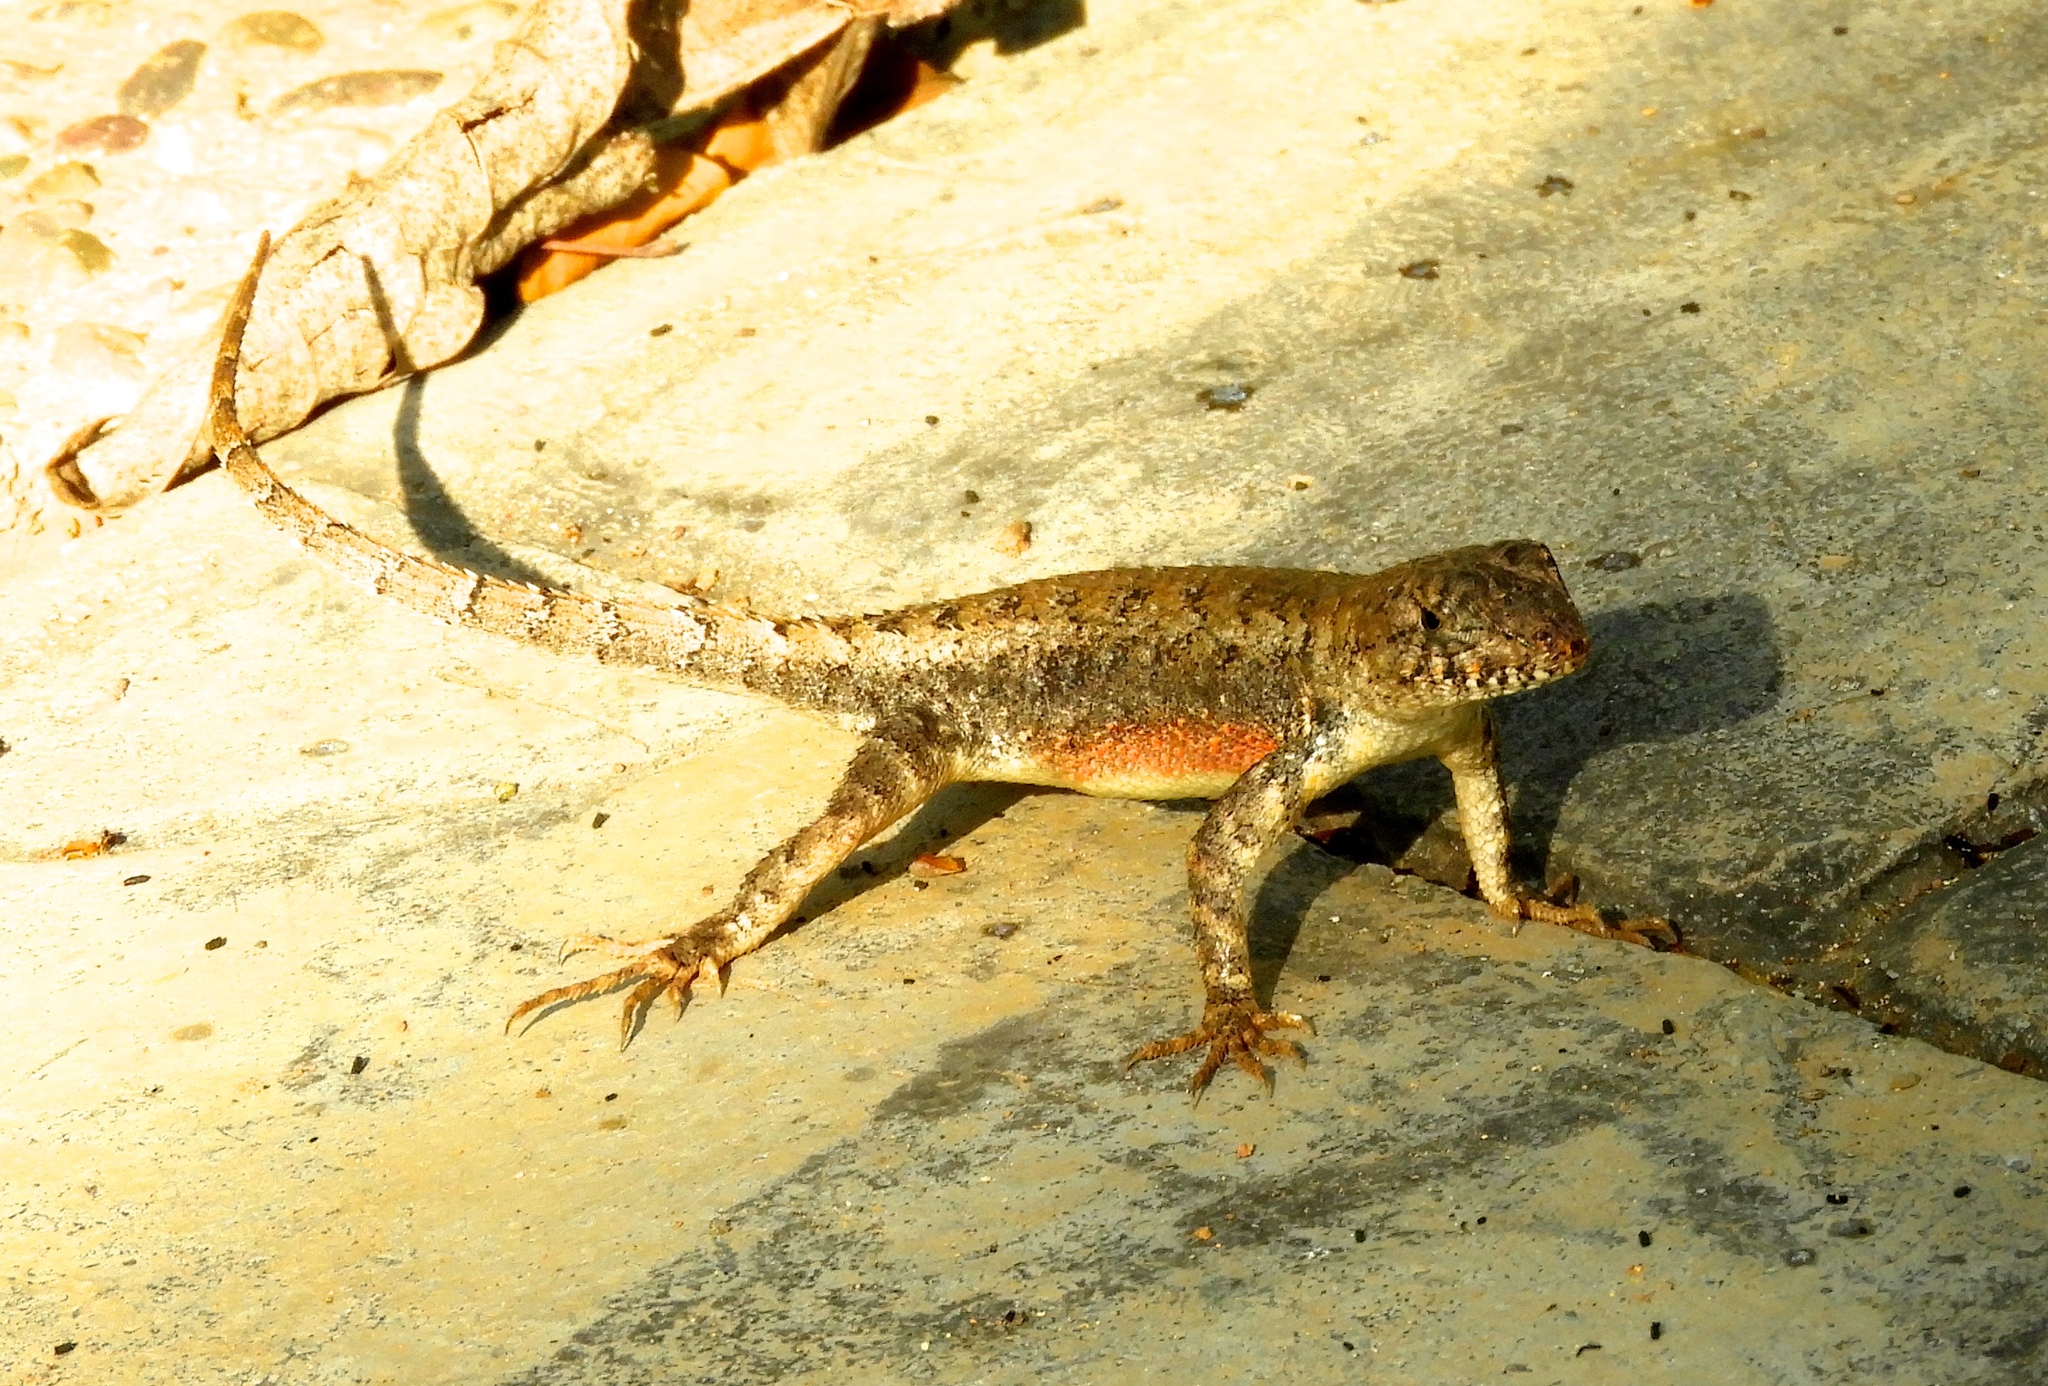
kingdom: Animalia
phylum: Chordata
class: Squamata
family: Phrynosomatidae
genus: Sceloporus
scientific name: Sceloporus nelsoni
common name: Nelson's spiny lizard
